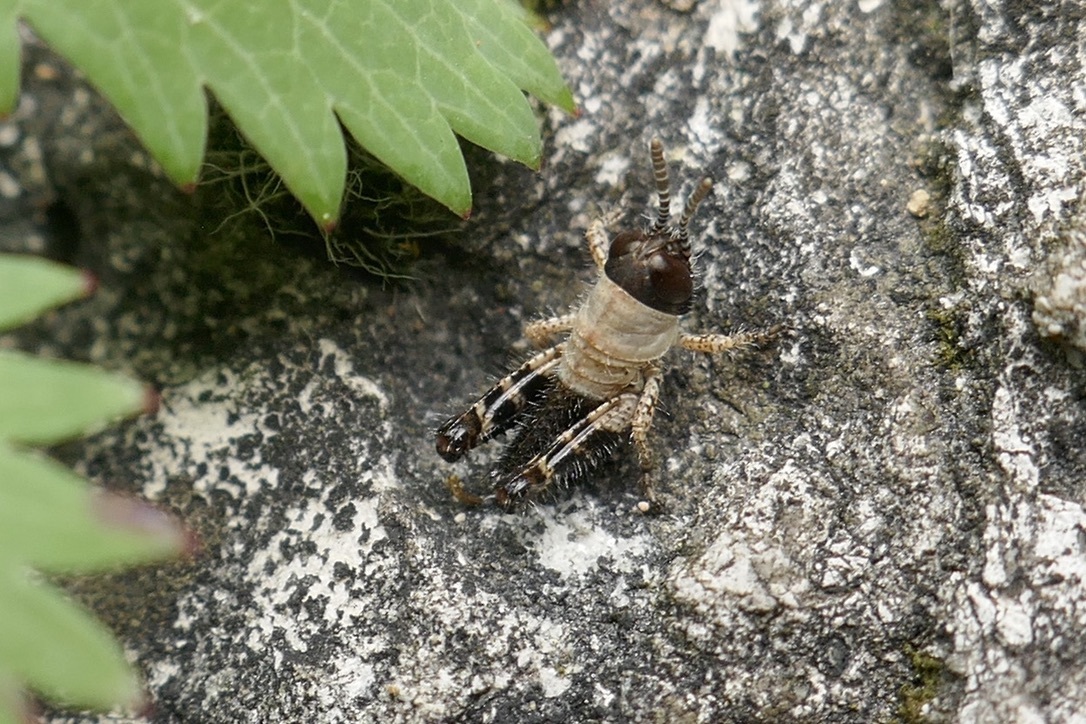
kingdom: Animalia
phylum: Arthropoda
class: Insecta
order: Orthoptera
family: Acrididae
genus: Calliptamus
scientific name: Calliptamus italicus
